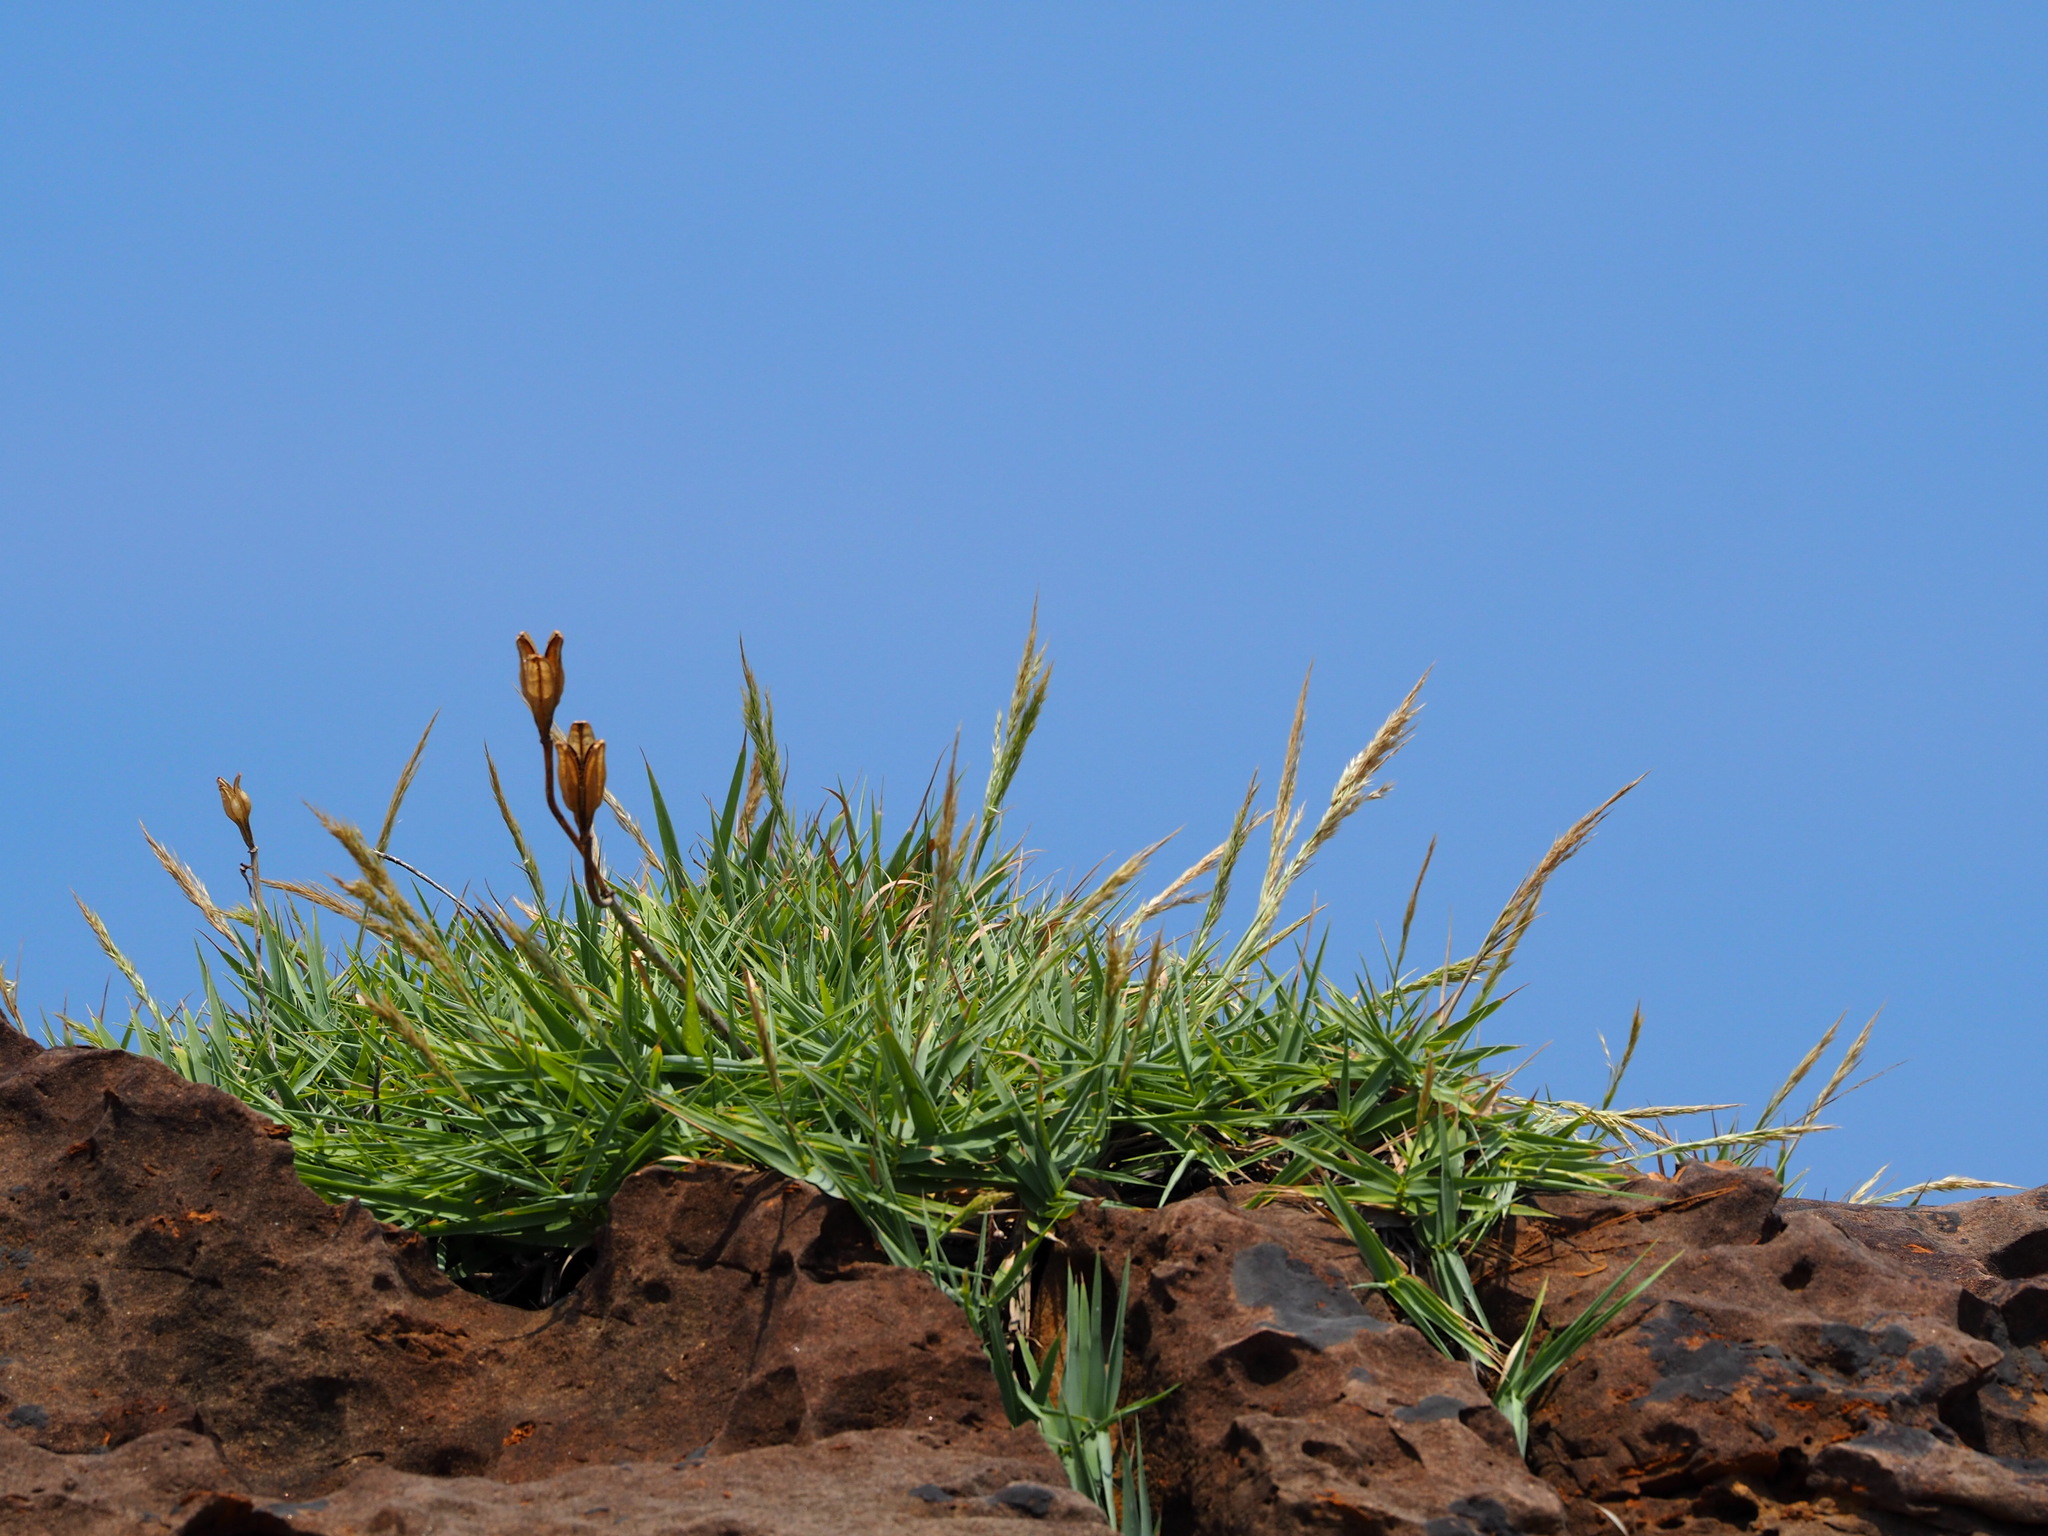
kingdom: Plantae
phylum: Tracheophyta
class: Liliopsida
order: Poales
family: Poaceae
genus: Arundo
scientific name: Arundo formosana
